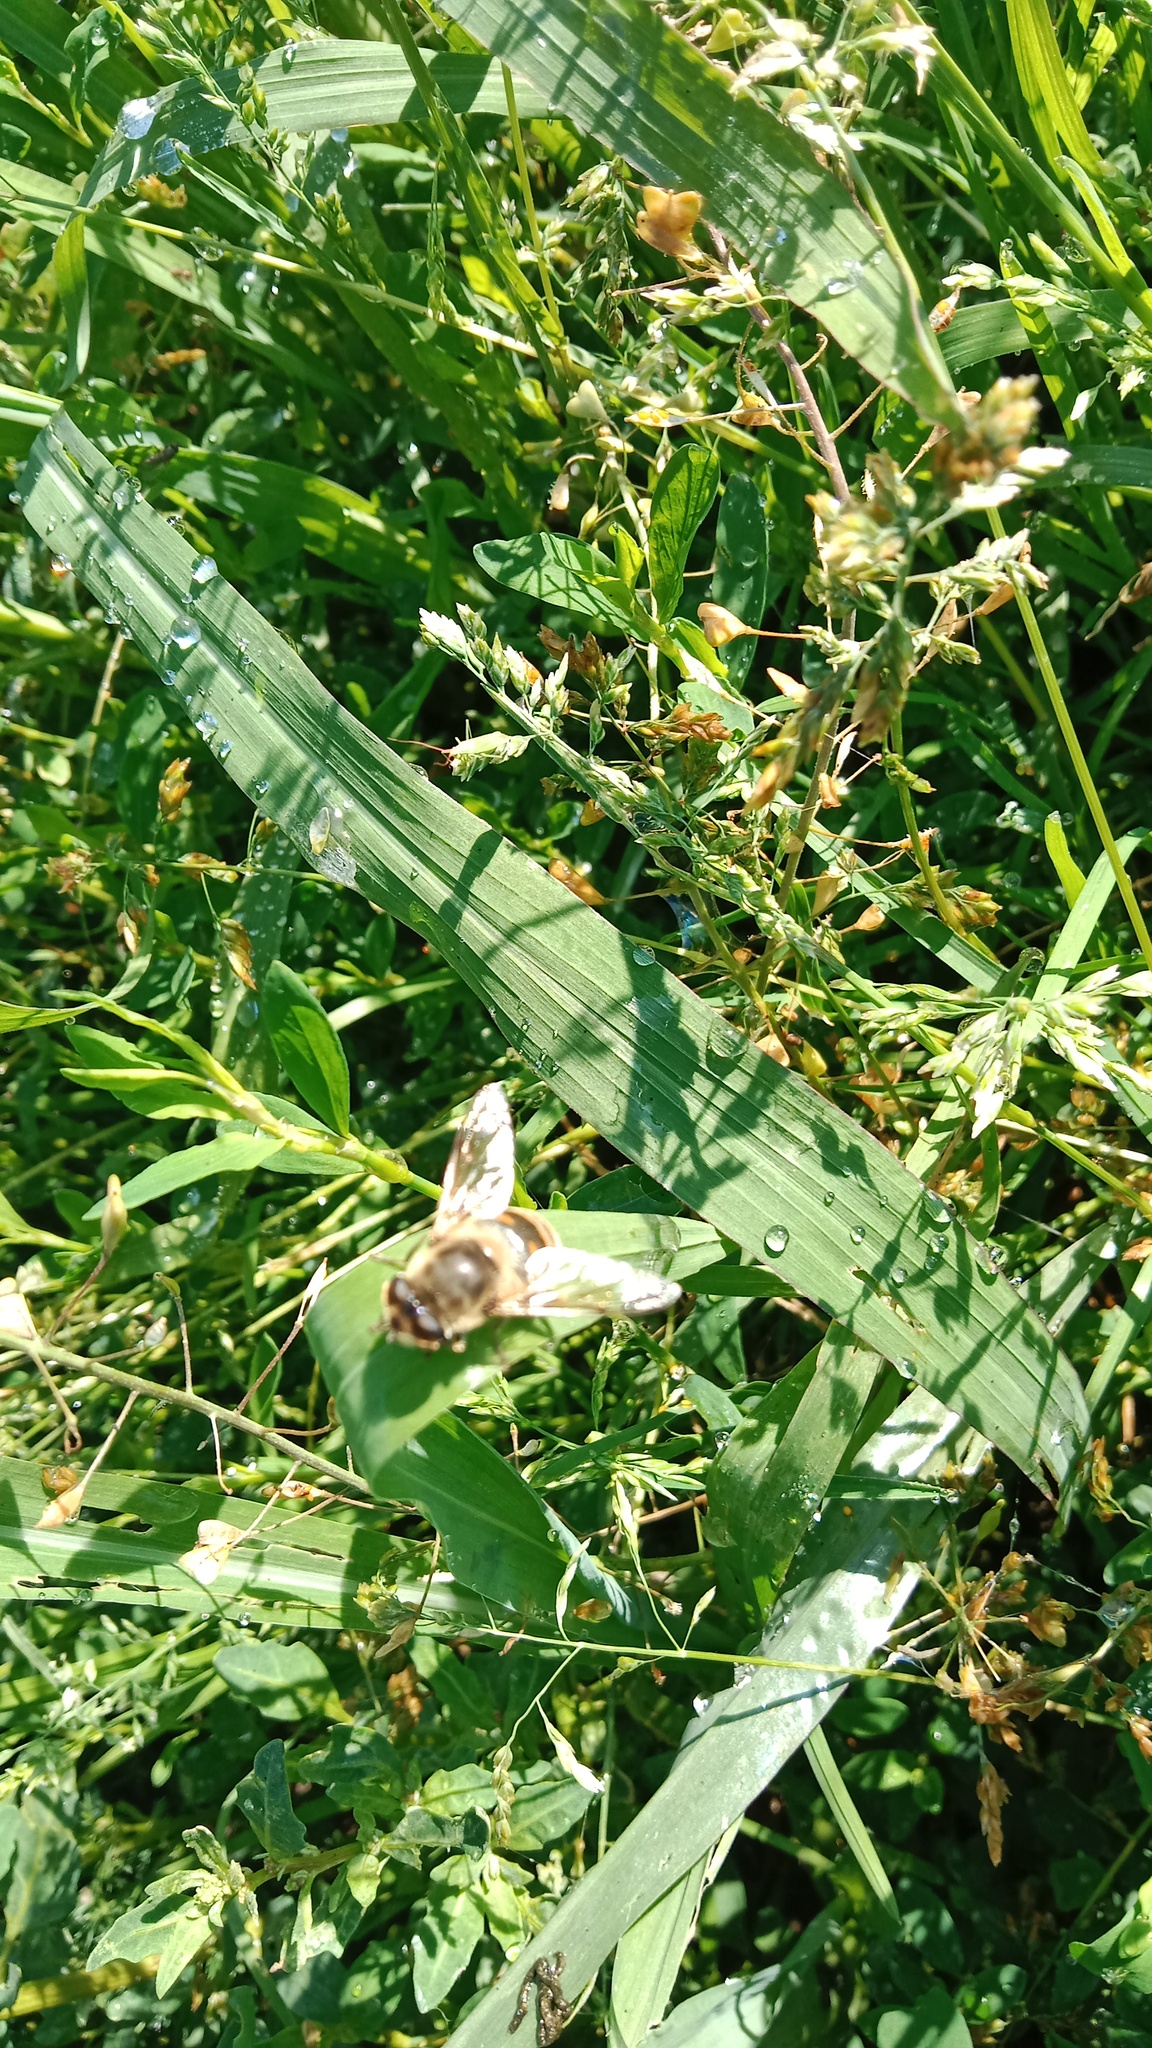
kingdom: Animalia
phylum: Arthropoda
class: Insecta
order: Diptera
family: Syrphidae
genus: Eristalis
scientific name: Eristalis tenax
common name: Drone fly
